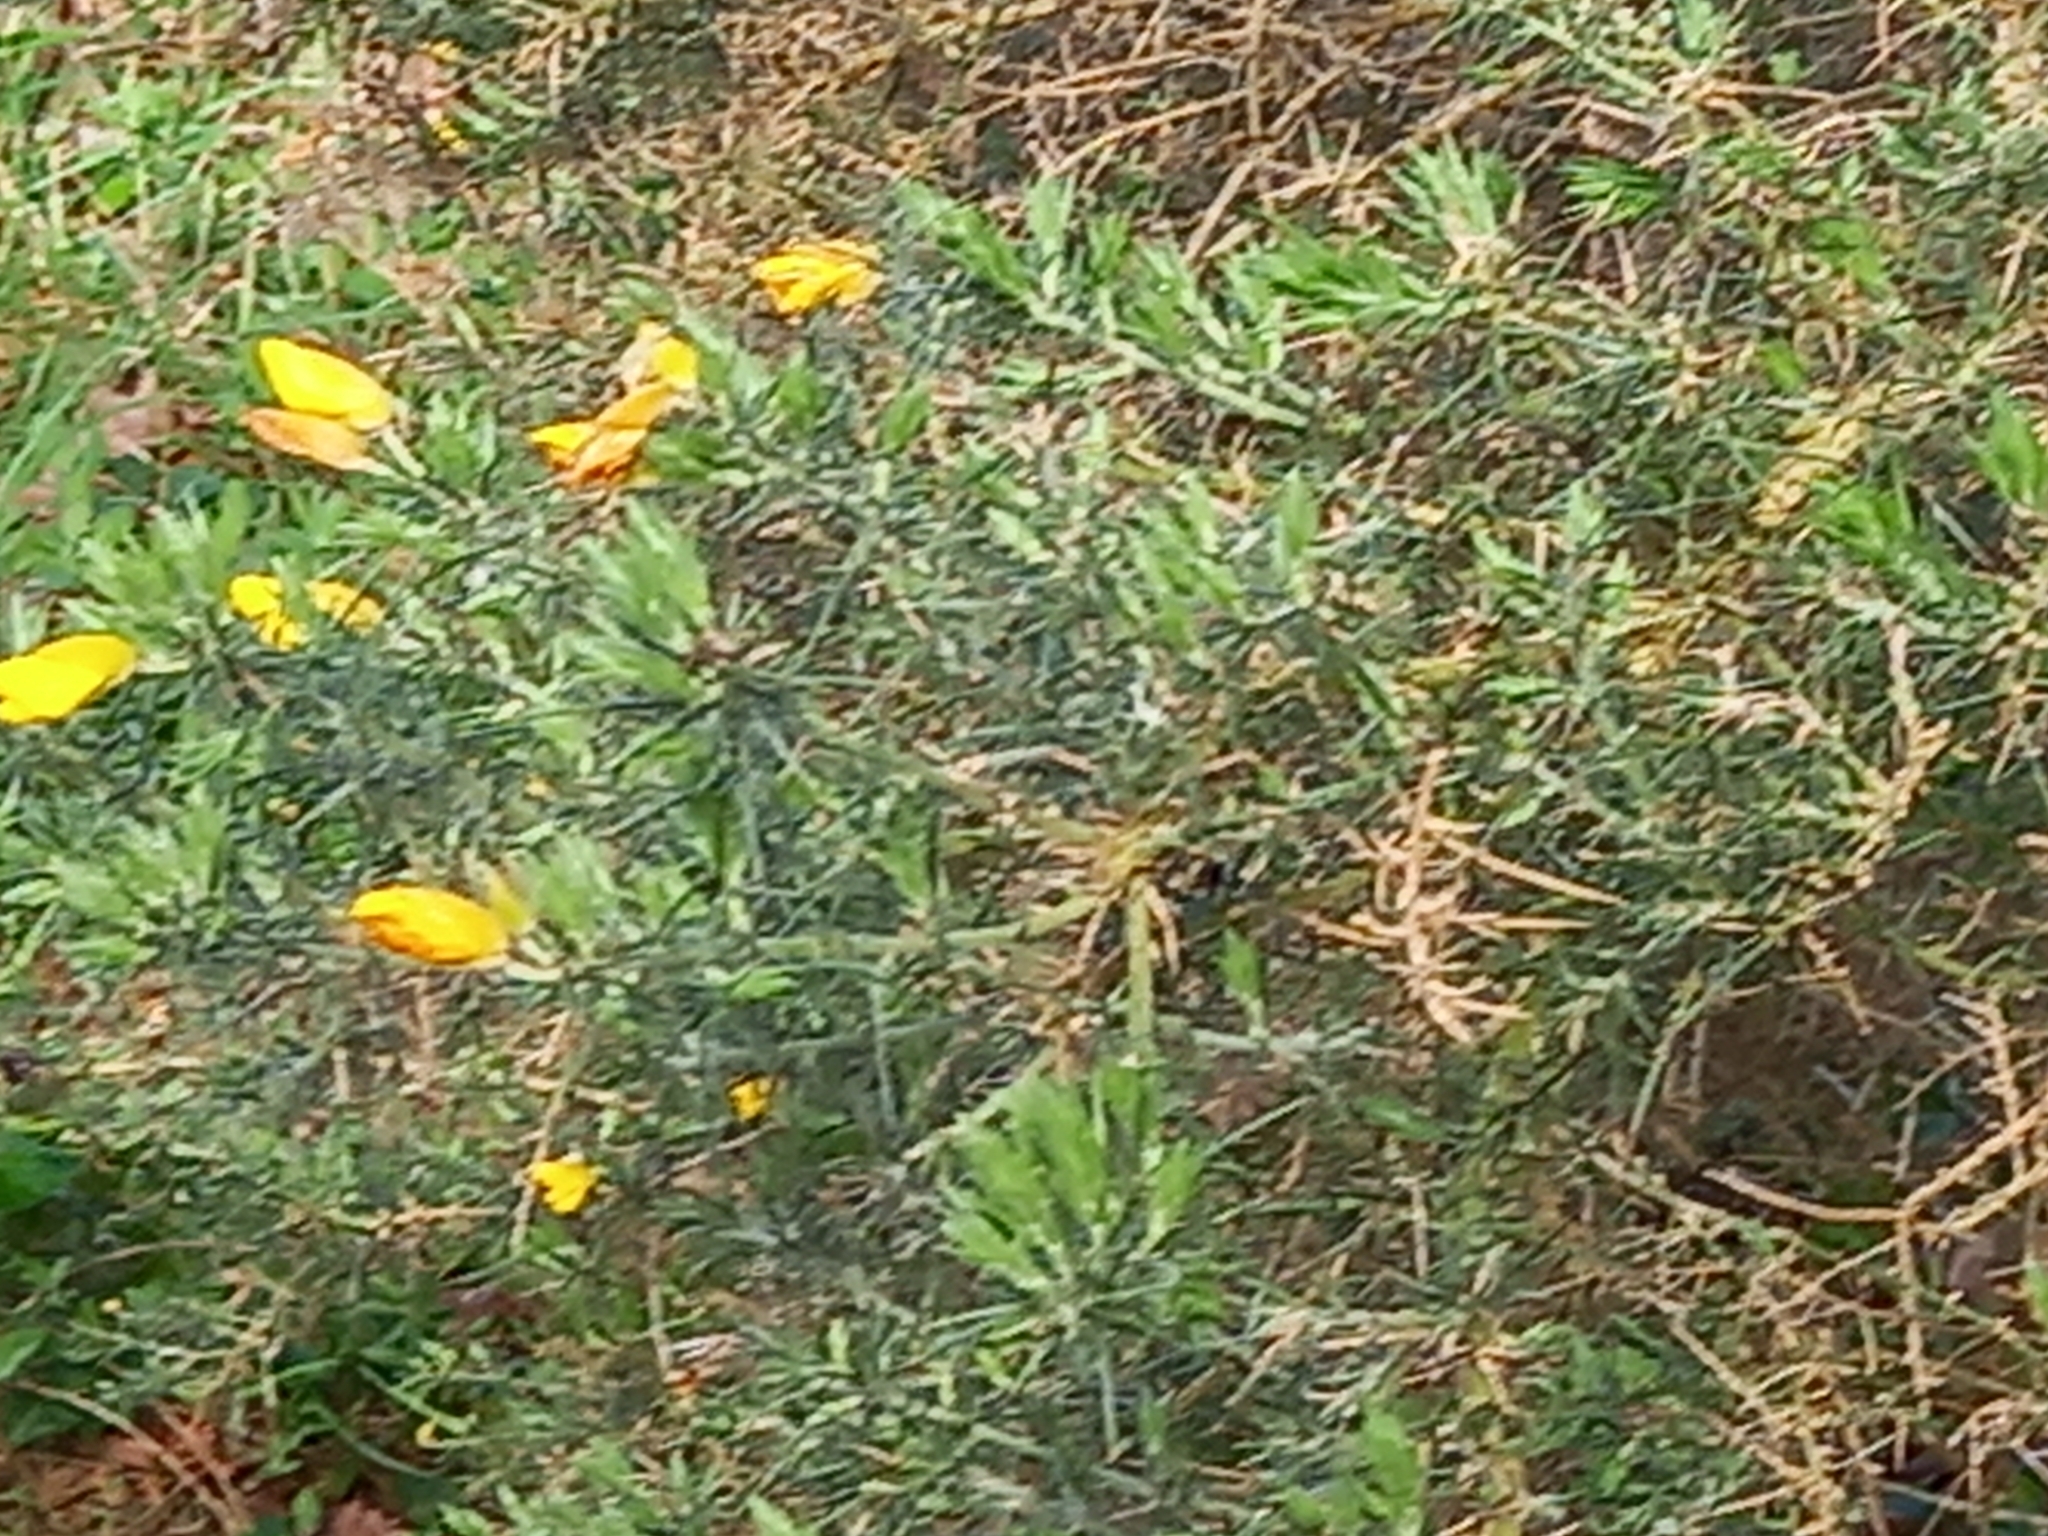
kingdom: Plantae
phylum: Tracheophyta
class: Magnoliopsida
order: Fabales
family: Fabaceae
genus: Ulex
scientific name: Ulex europaeus
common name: Common gorse
